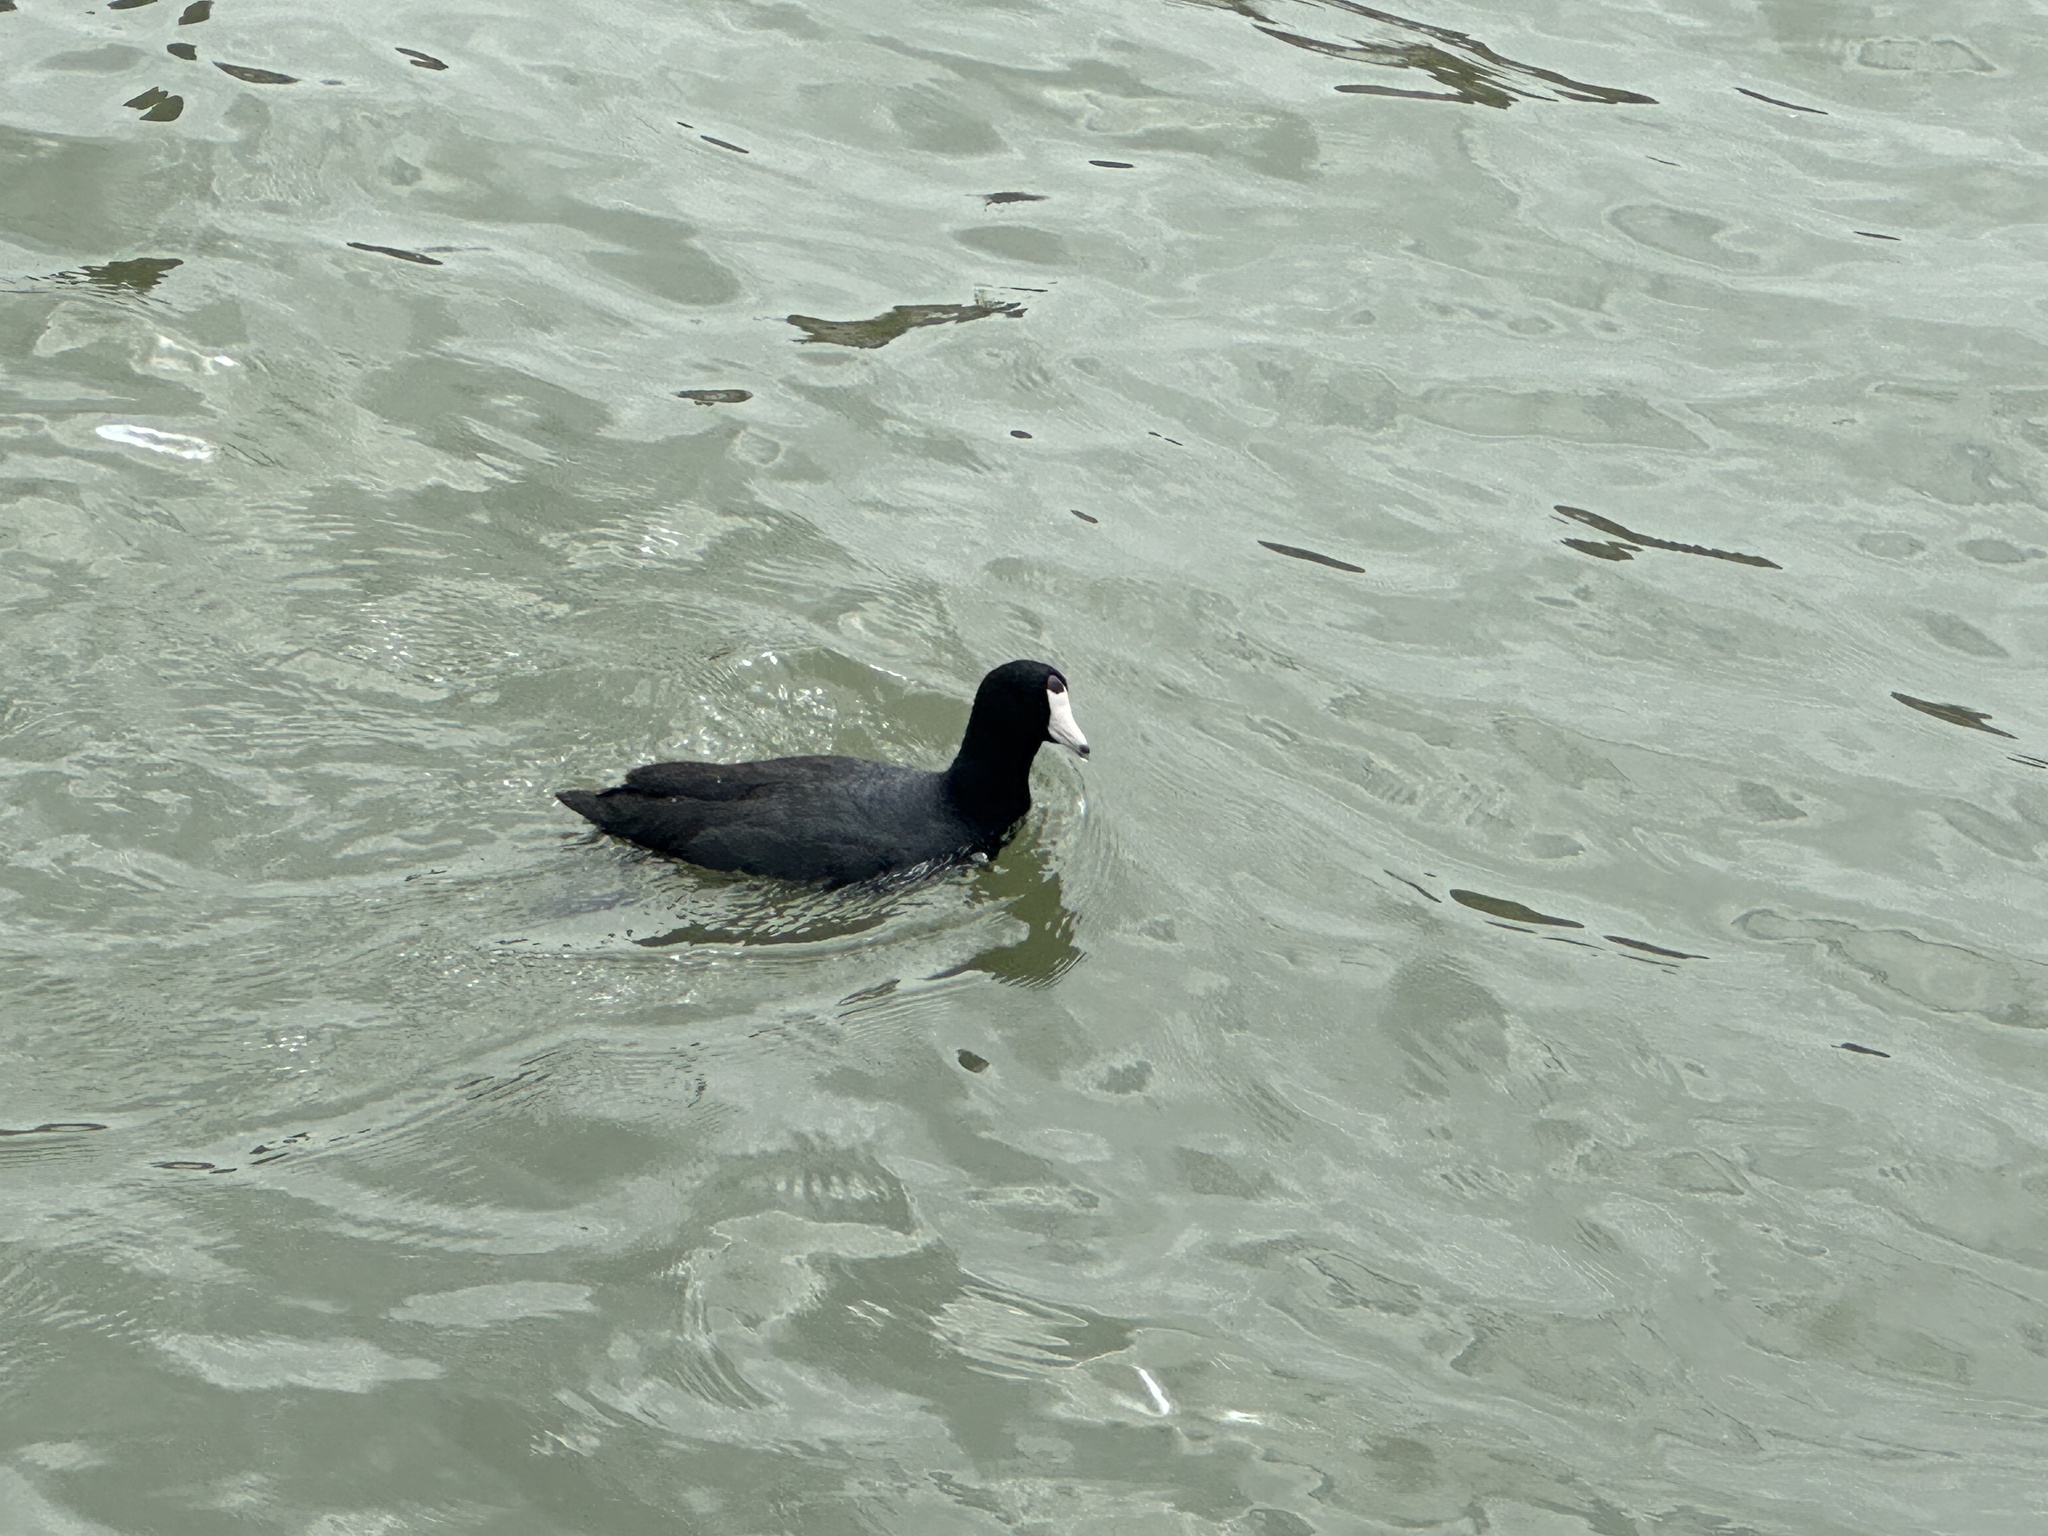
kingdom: Animalia
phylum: Chordata
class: Aves
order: Gruiformes
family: Rallidae
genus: Fulica
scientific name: Fulica americana
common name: American coot
